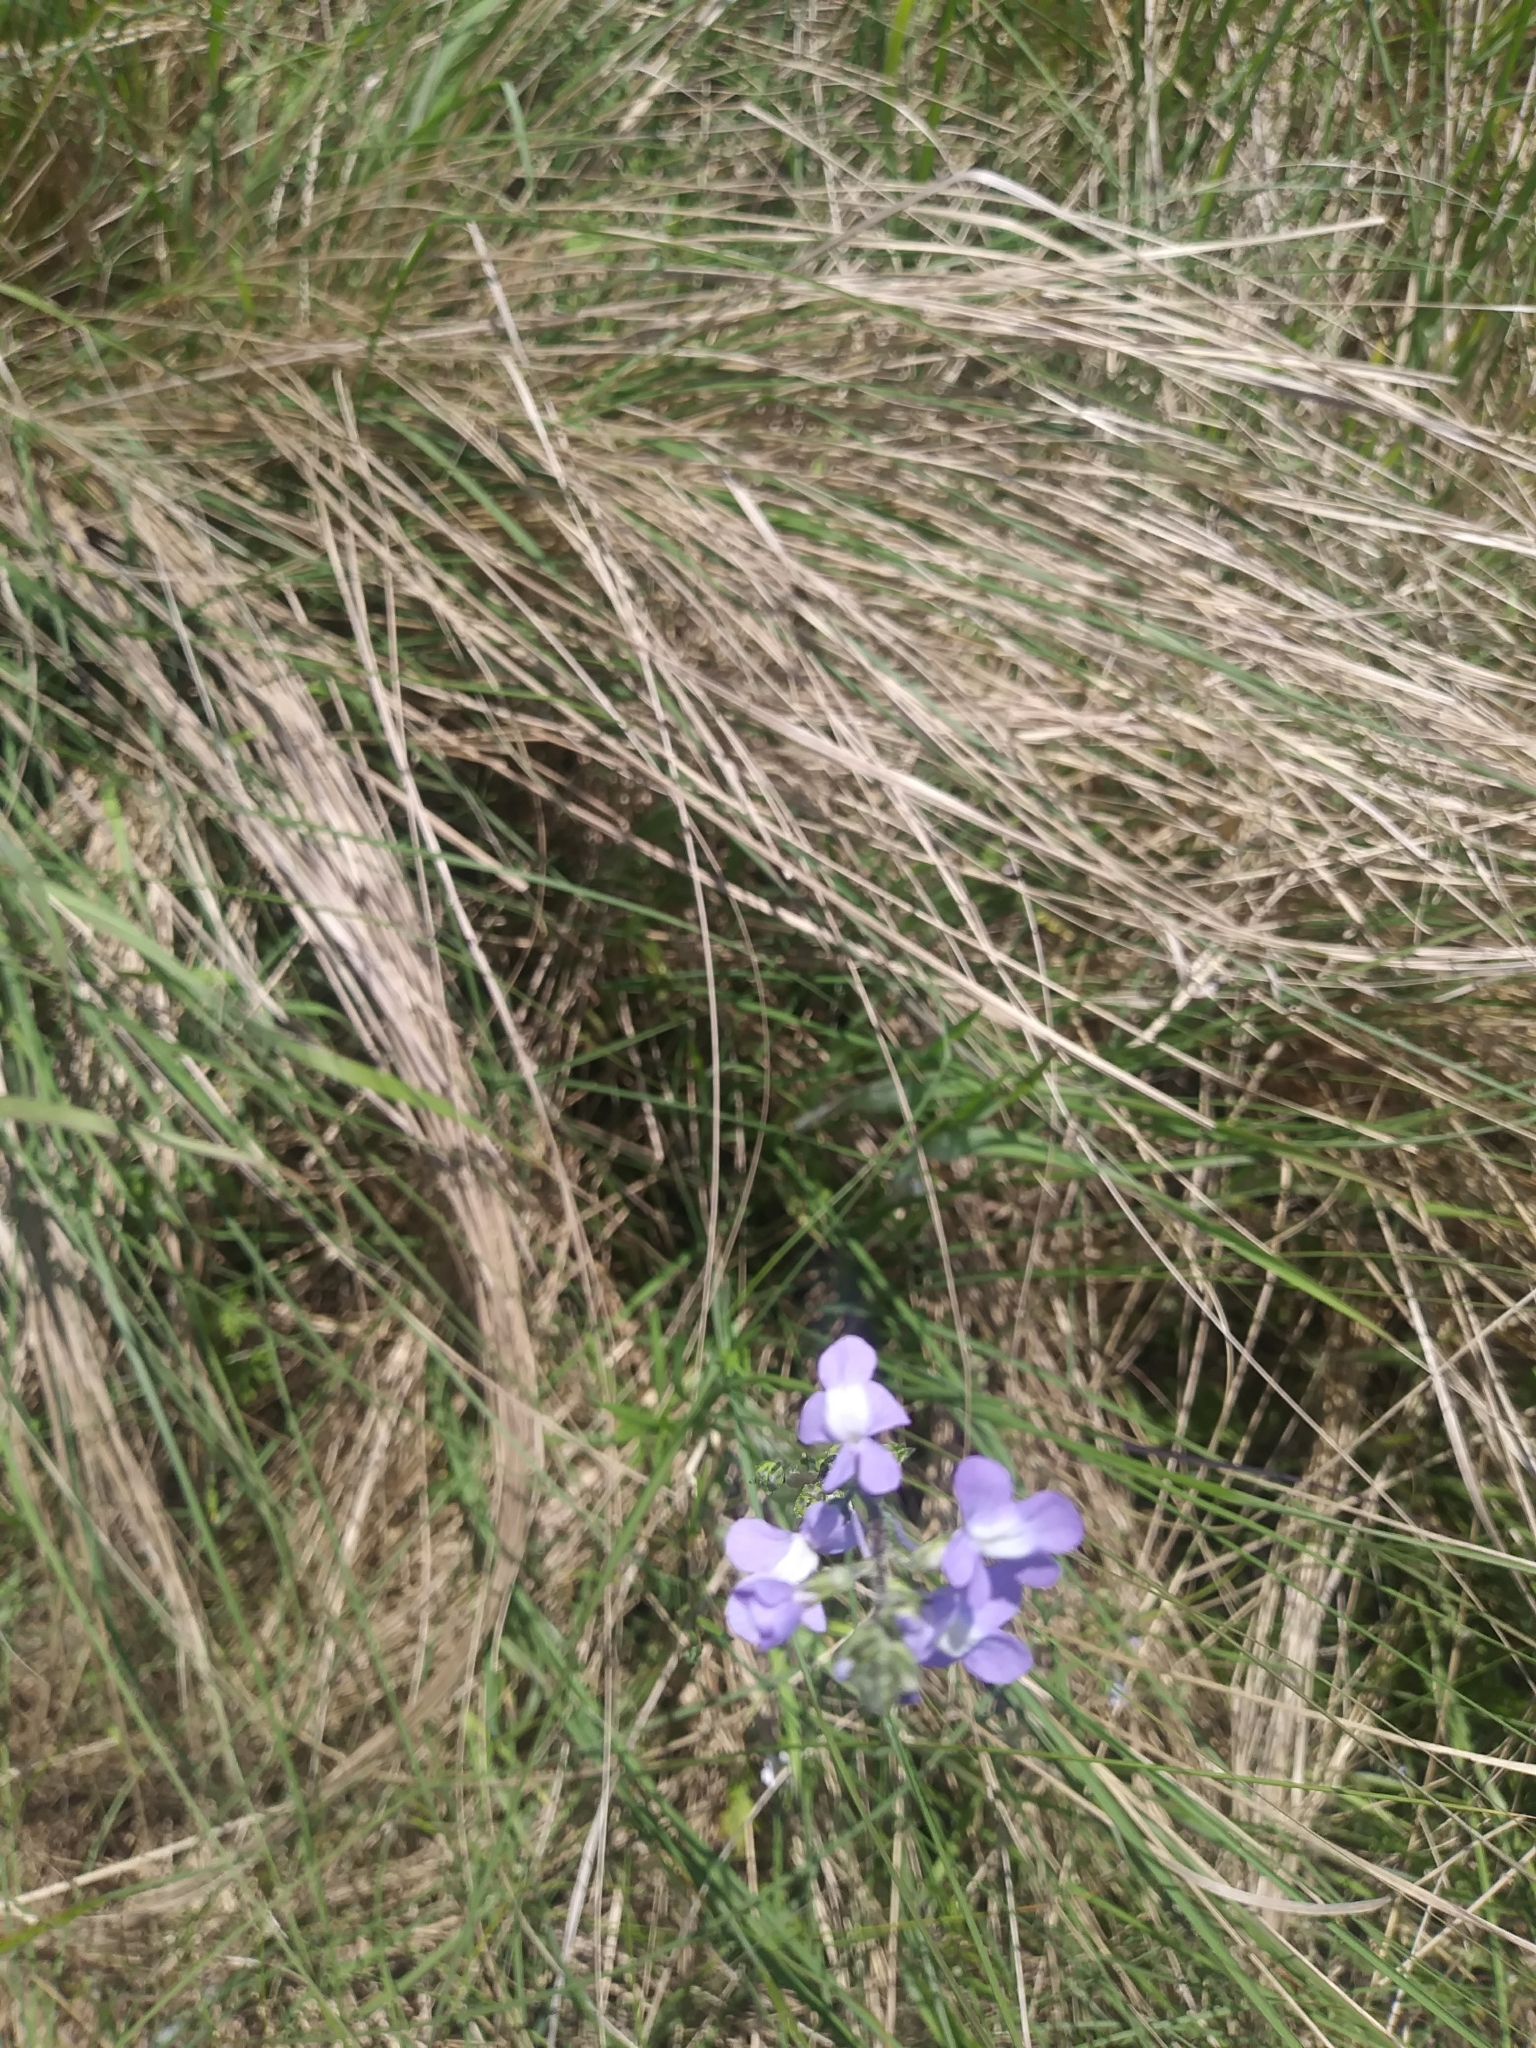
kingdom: Plantae
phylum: Tracheophyta
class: Magnoliopsida
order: Lamiales
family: Plantaginaceae
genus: Nuttallanthus
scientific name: Nuttallanthus canadensis
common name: Blue toadflax
